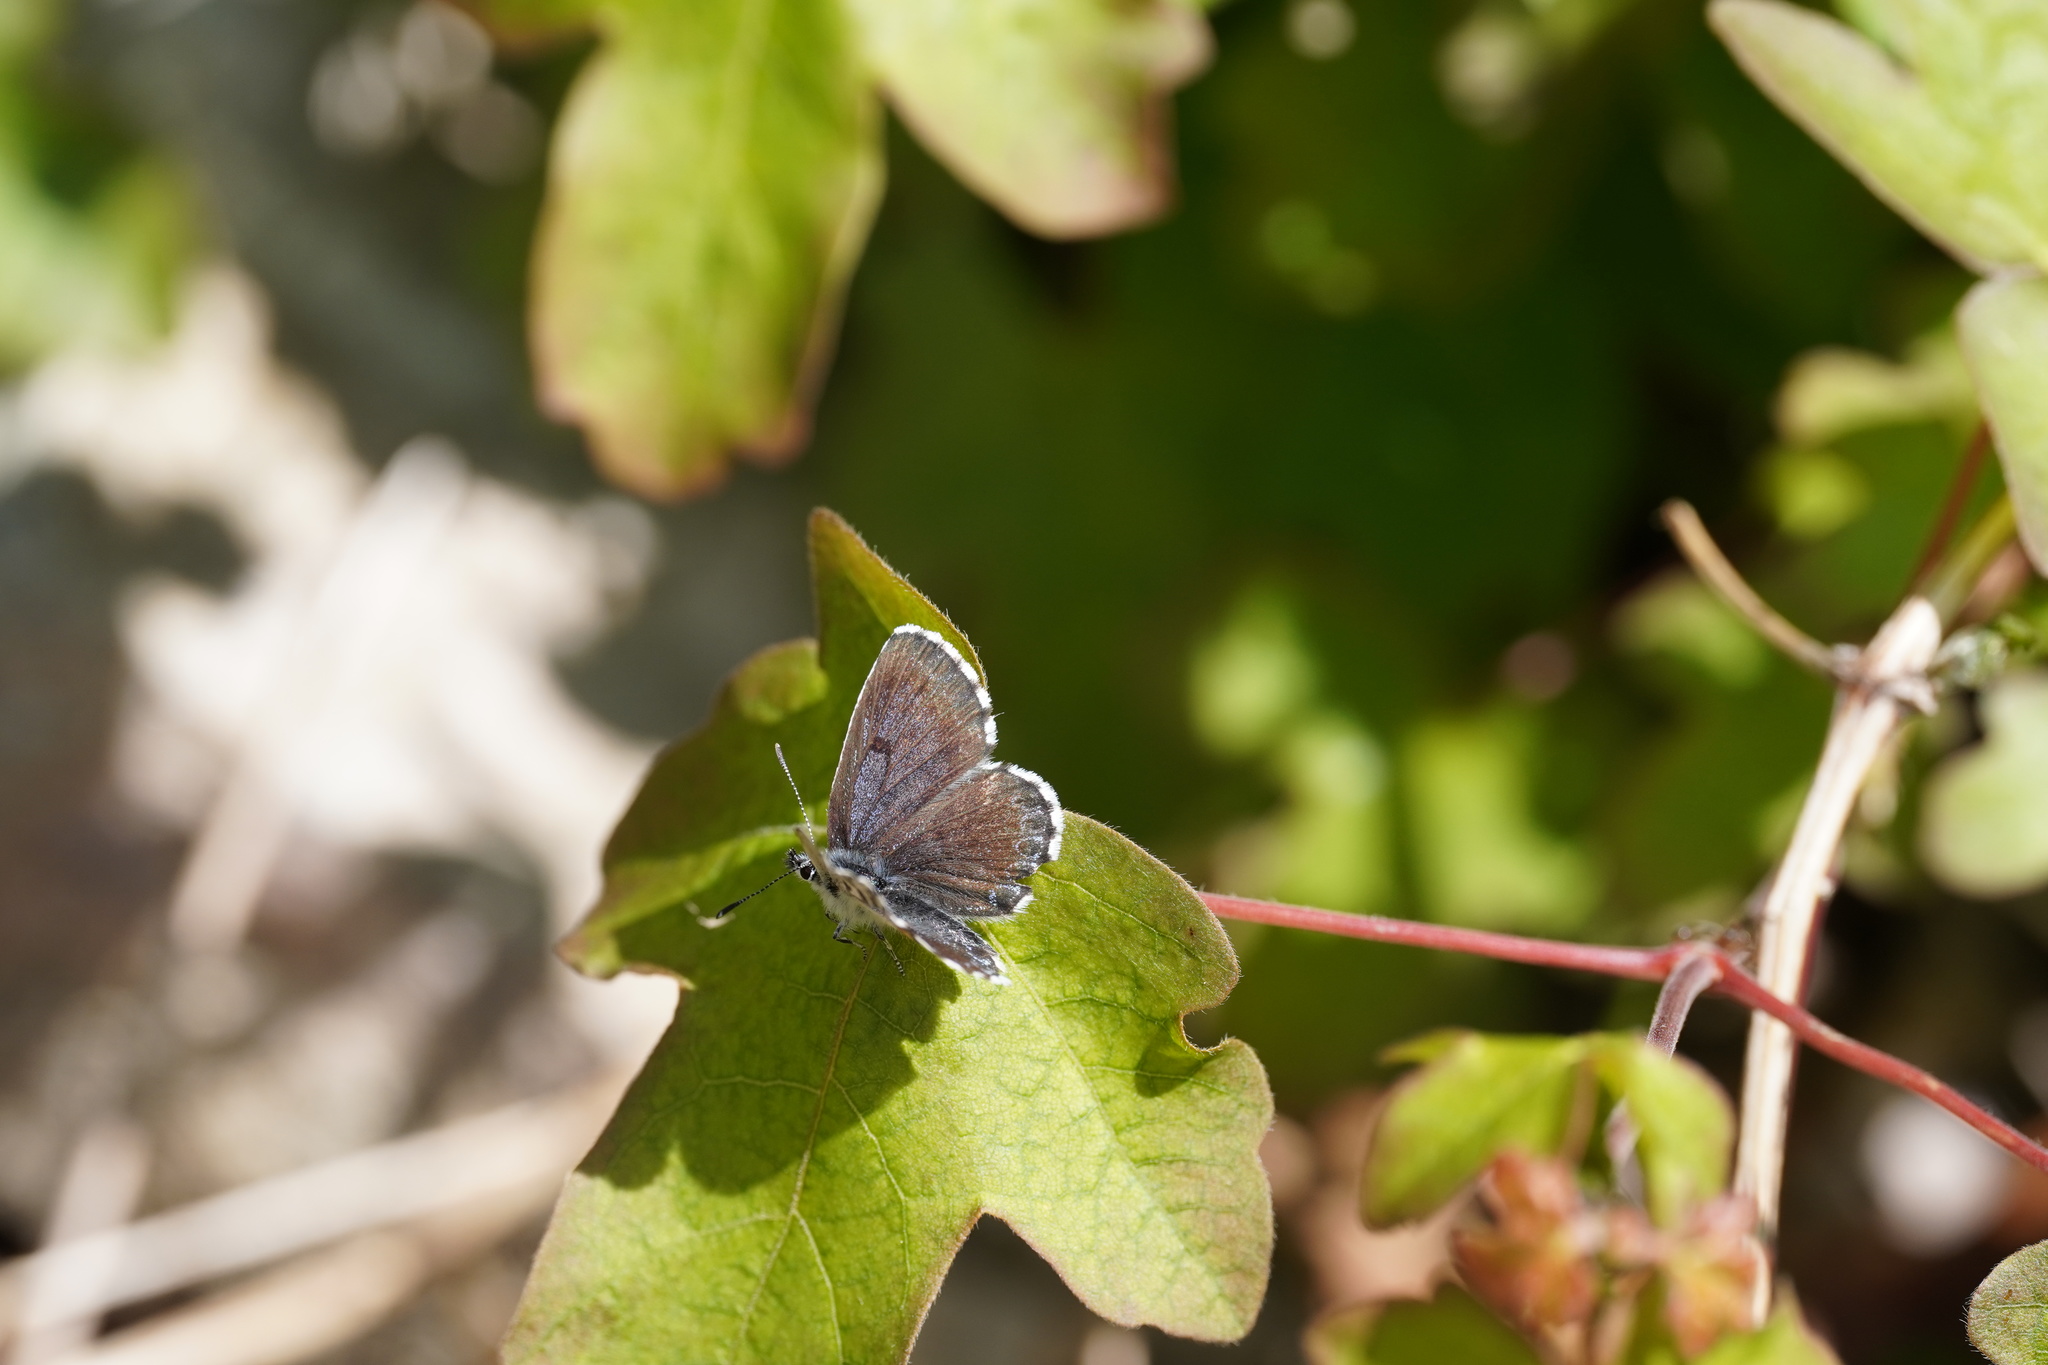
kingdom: Animalia
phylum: Arthropoda
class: Insecta
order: Lepidoptera
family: Lycaenidae
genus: Scolitantides
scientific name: Scolitantides orion
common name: Chequered blue
